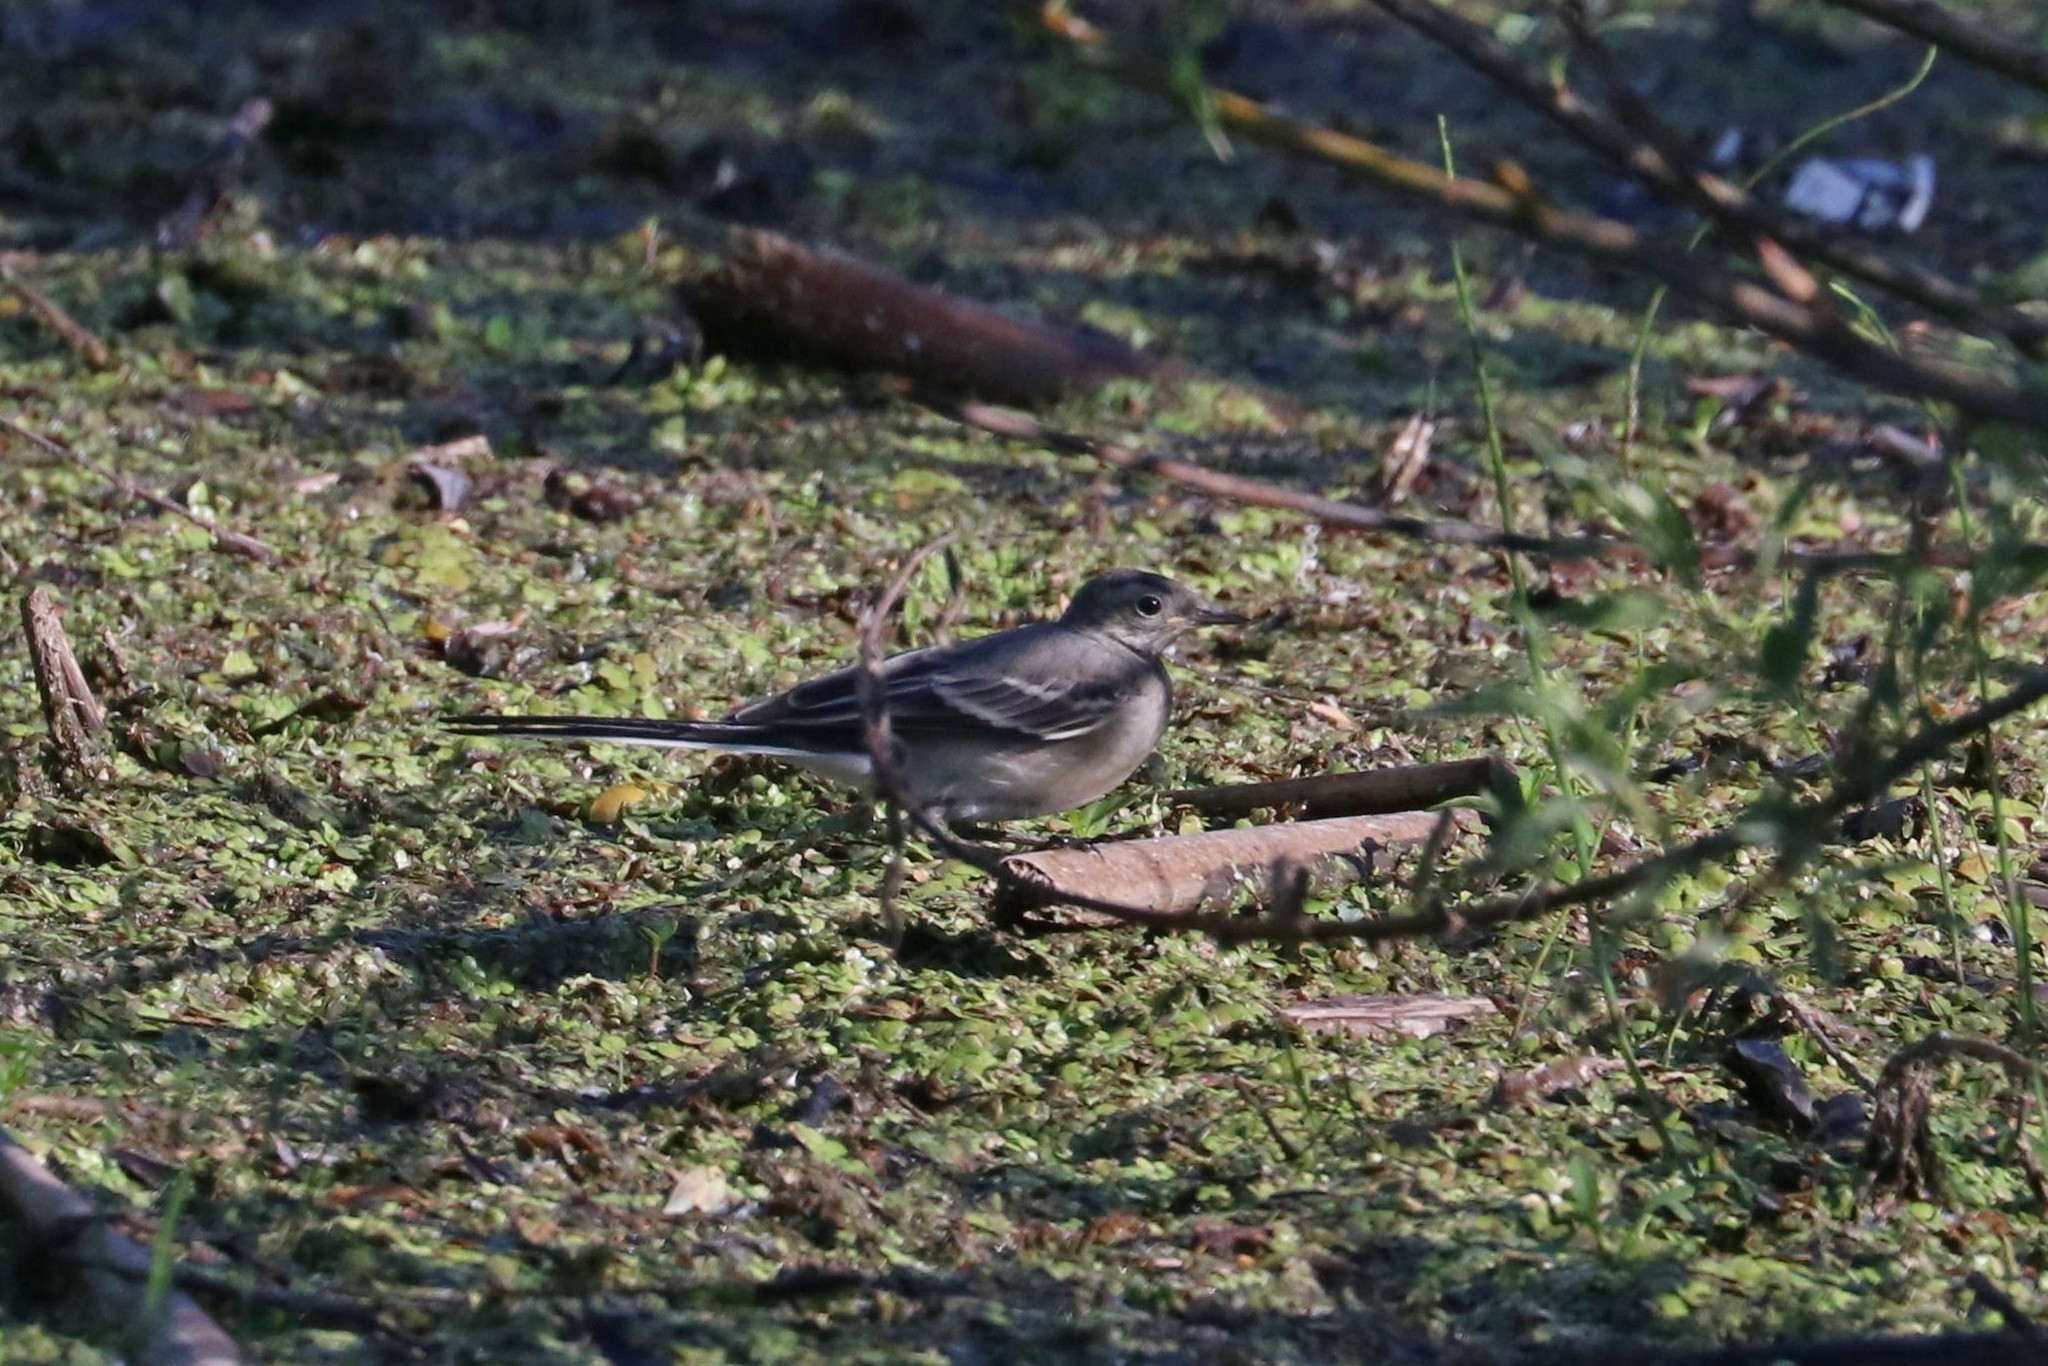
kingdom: Animalia
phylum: Chordata
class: Aves
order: Passeriformes
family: Motacillidae
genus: Motacilla
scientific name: Motacilla alba
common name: White wagtail
